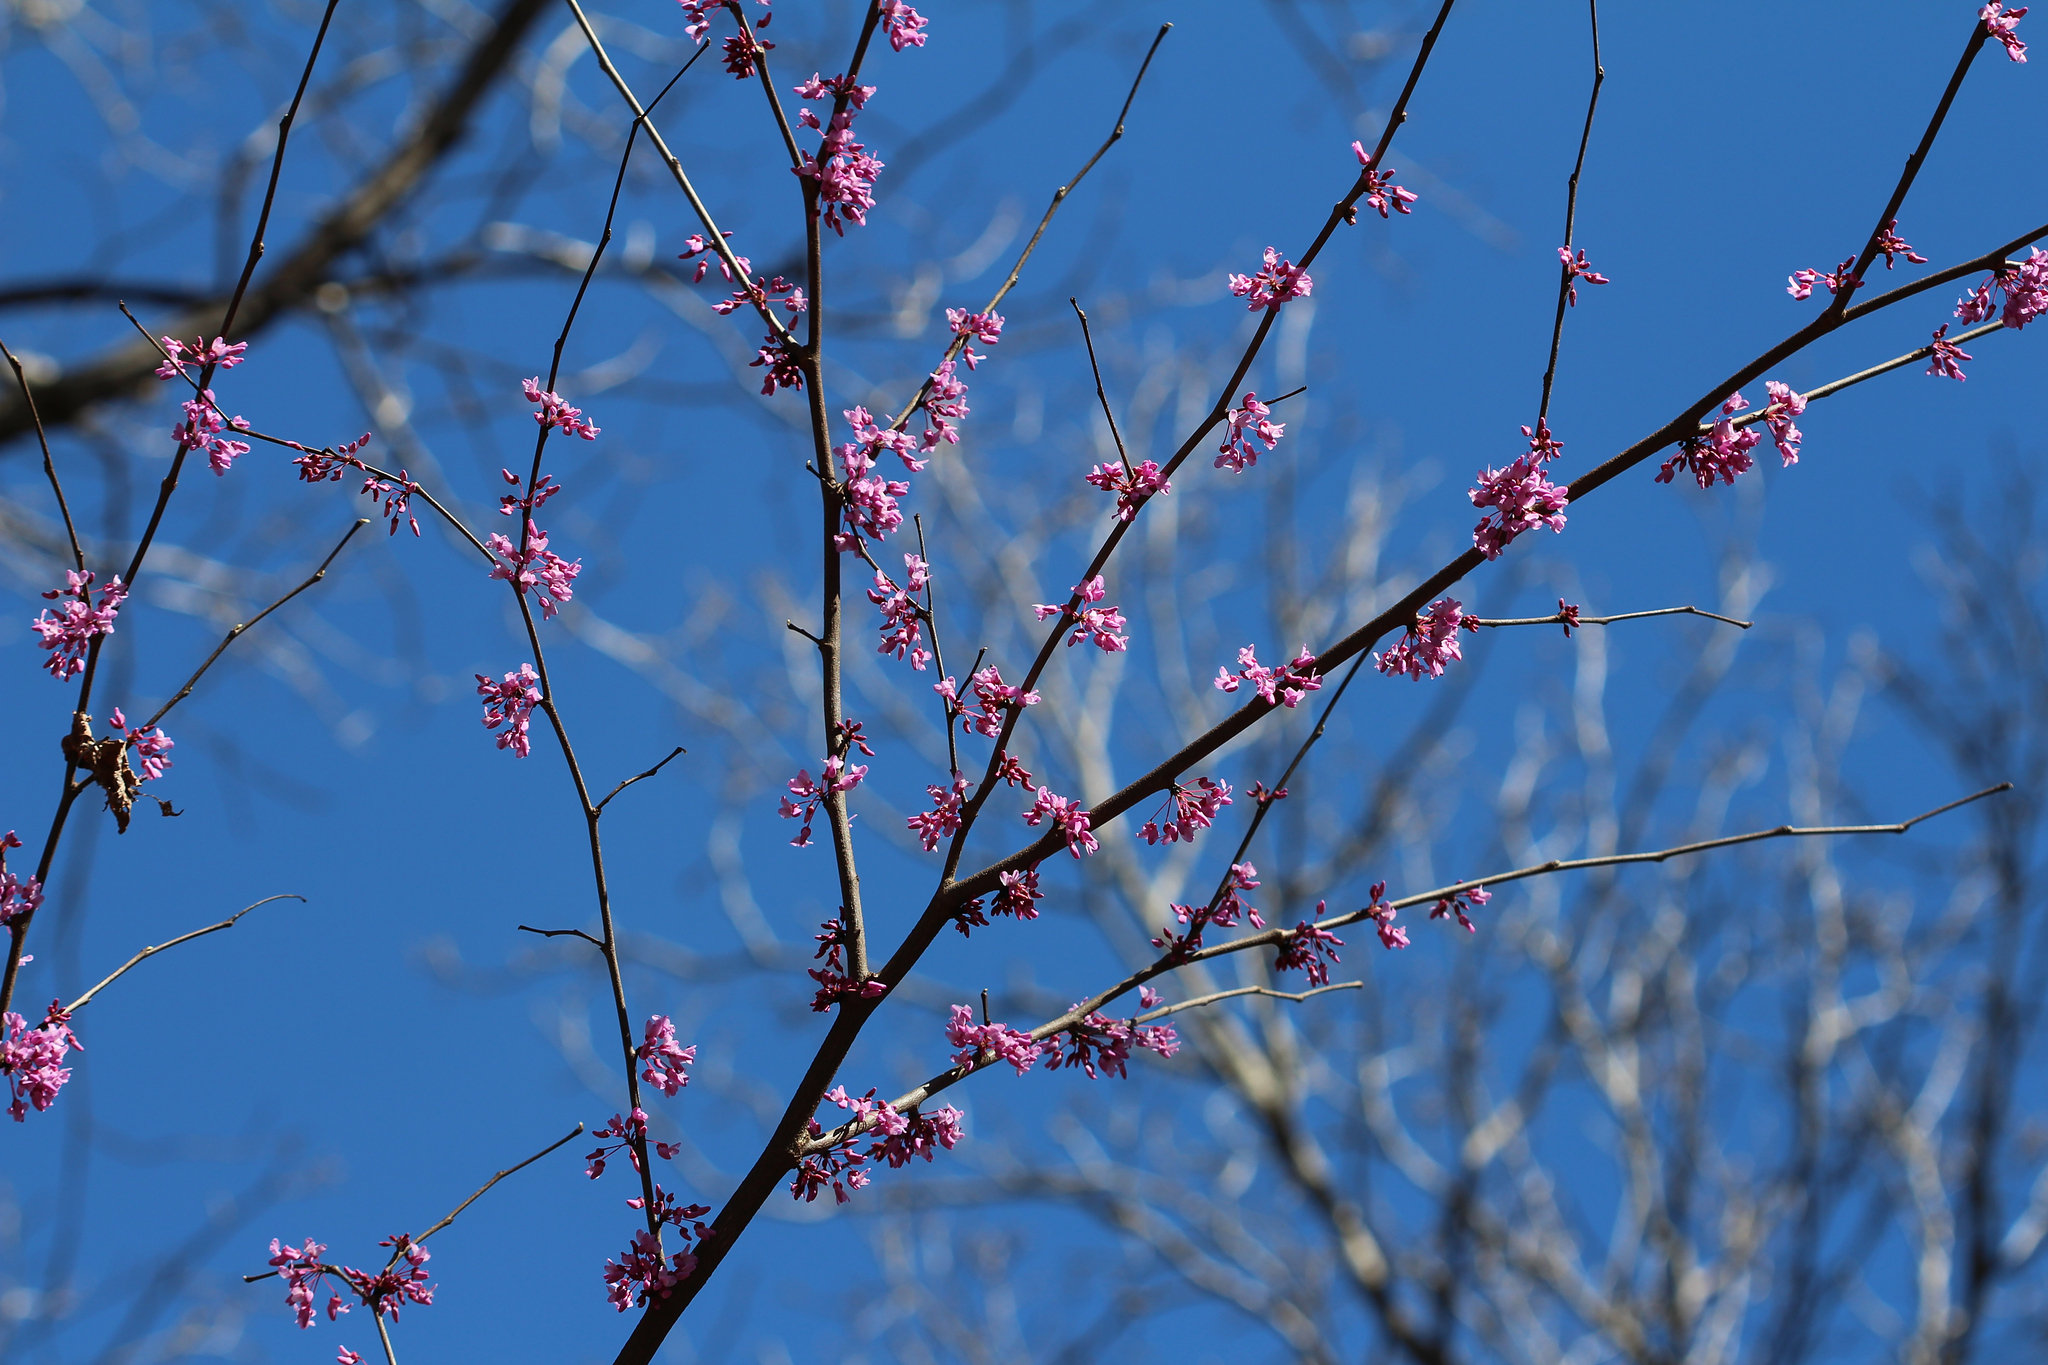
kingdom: Plantae
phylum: Tracheophyta
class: Magnoliopsida
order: Fabales
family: Fabaceae
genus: Cercis
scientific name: Cercis canadensis
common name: Eastern redbud
